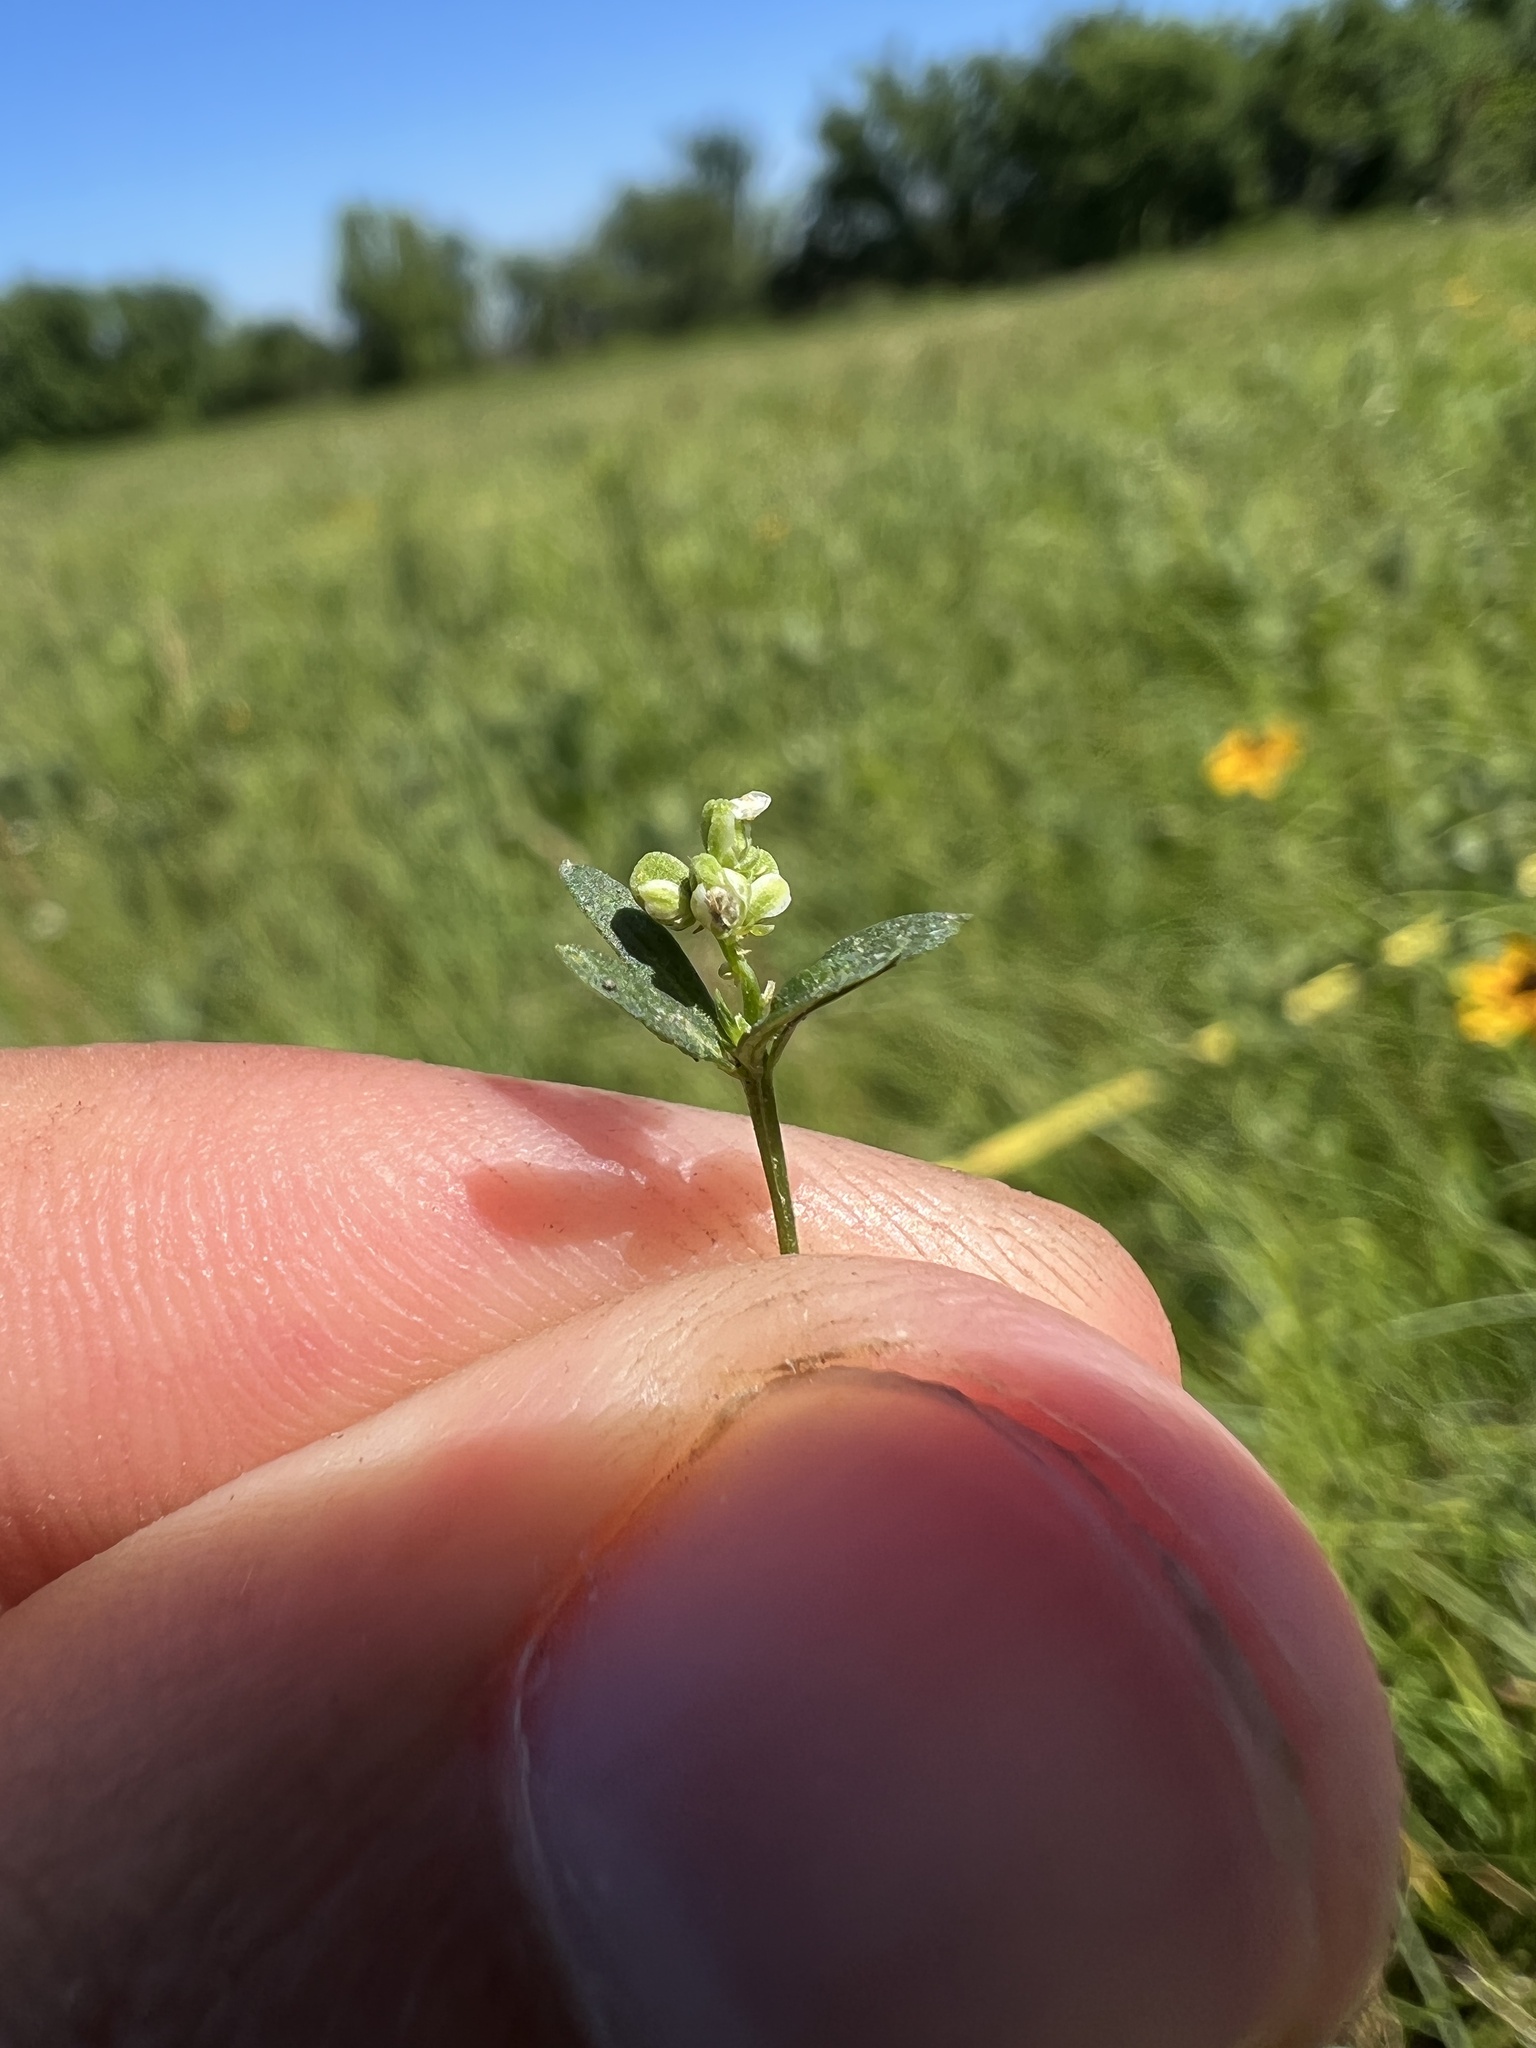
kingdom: Plantae
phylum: Tracheophyta
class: Magnoliopsida
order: Fabales
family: Polygalaceae
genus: Polygala
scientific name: Polygala verticillata
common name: Whorl milkwort
